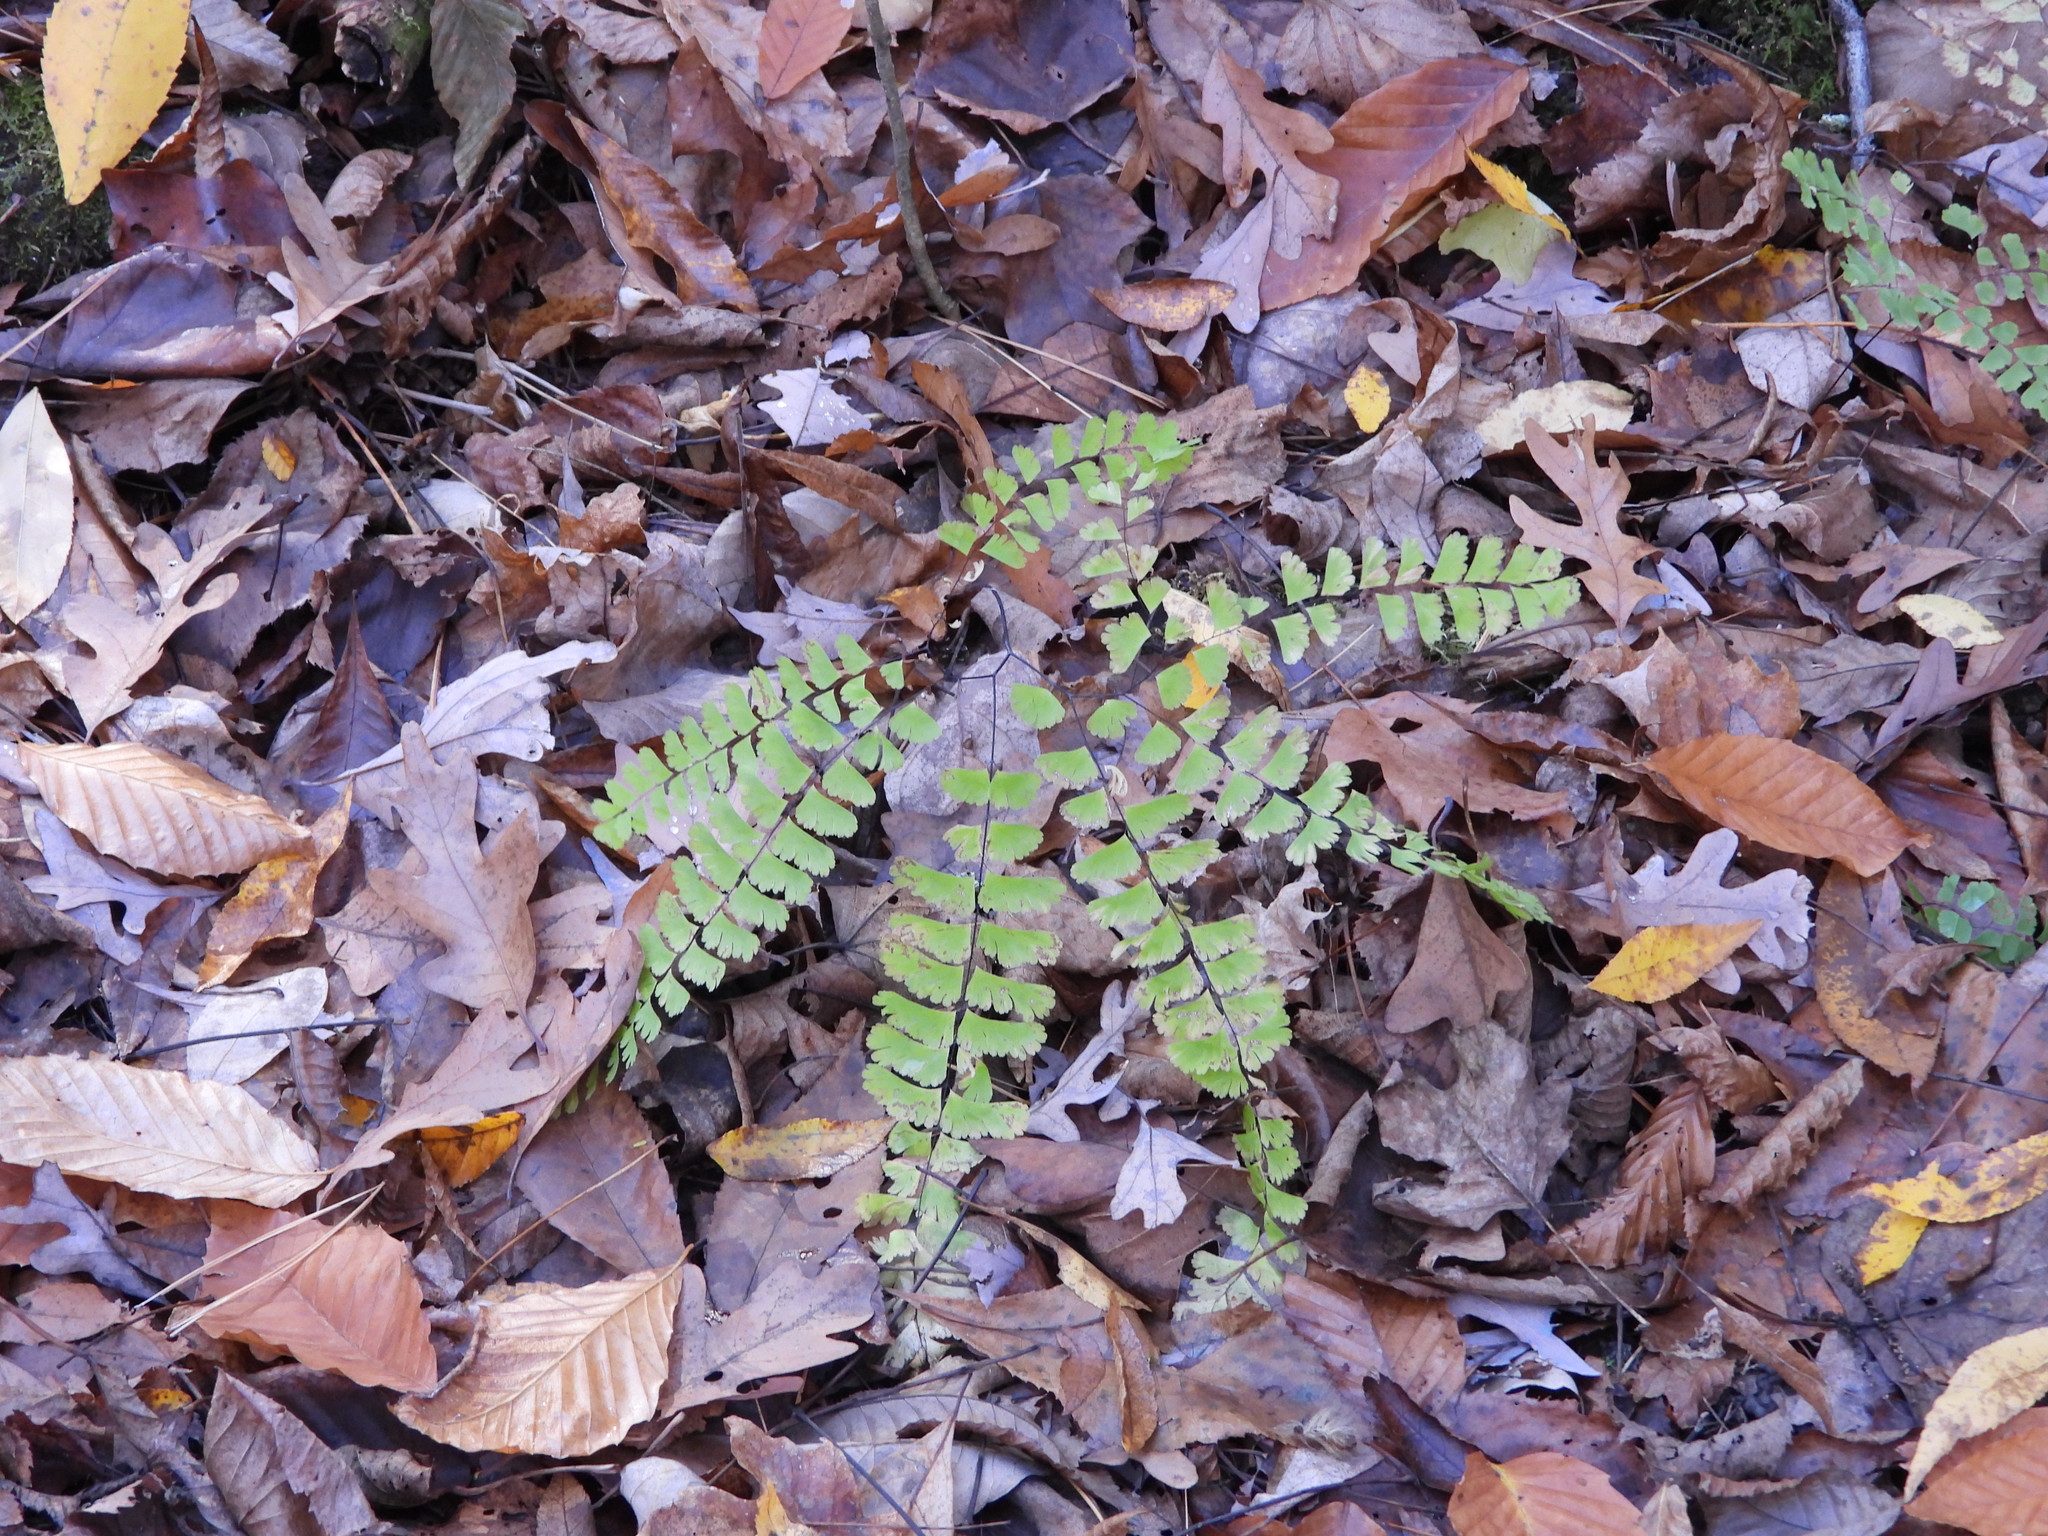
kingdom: Plantae
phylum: Tracheophyta
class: Polypodiopsida
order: Polypodiales
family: Pteridaceae
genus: Adiantum
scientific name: Adiantum pedatum
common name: Five-finger fern
